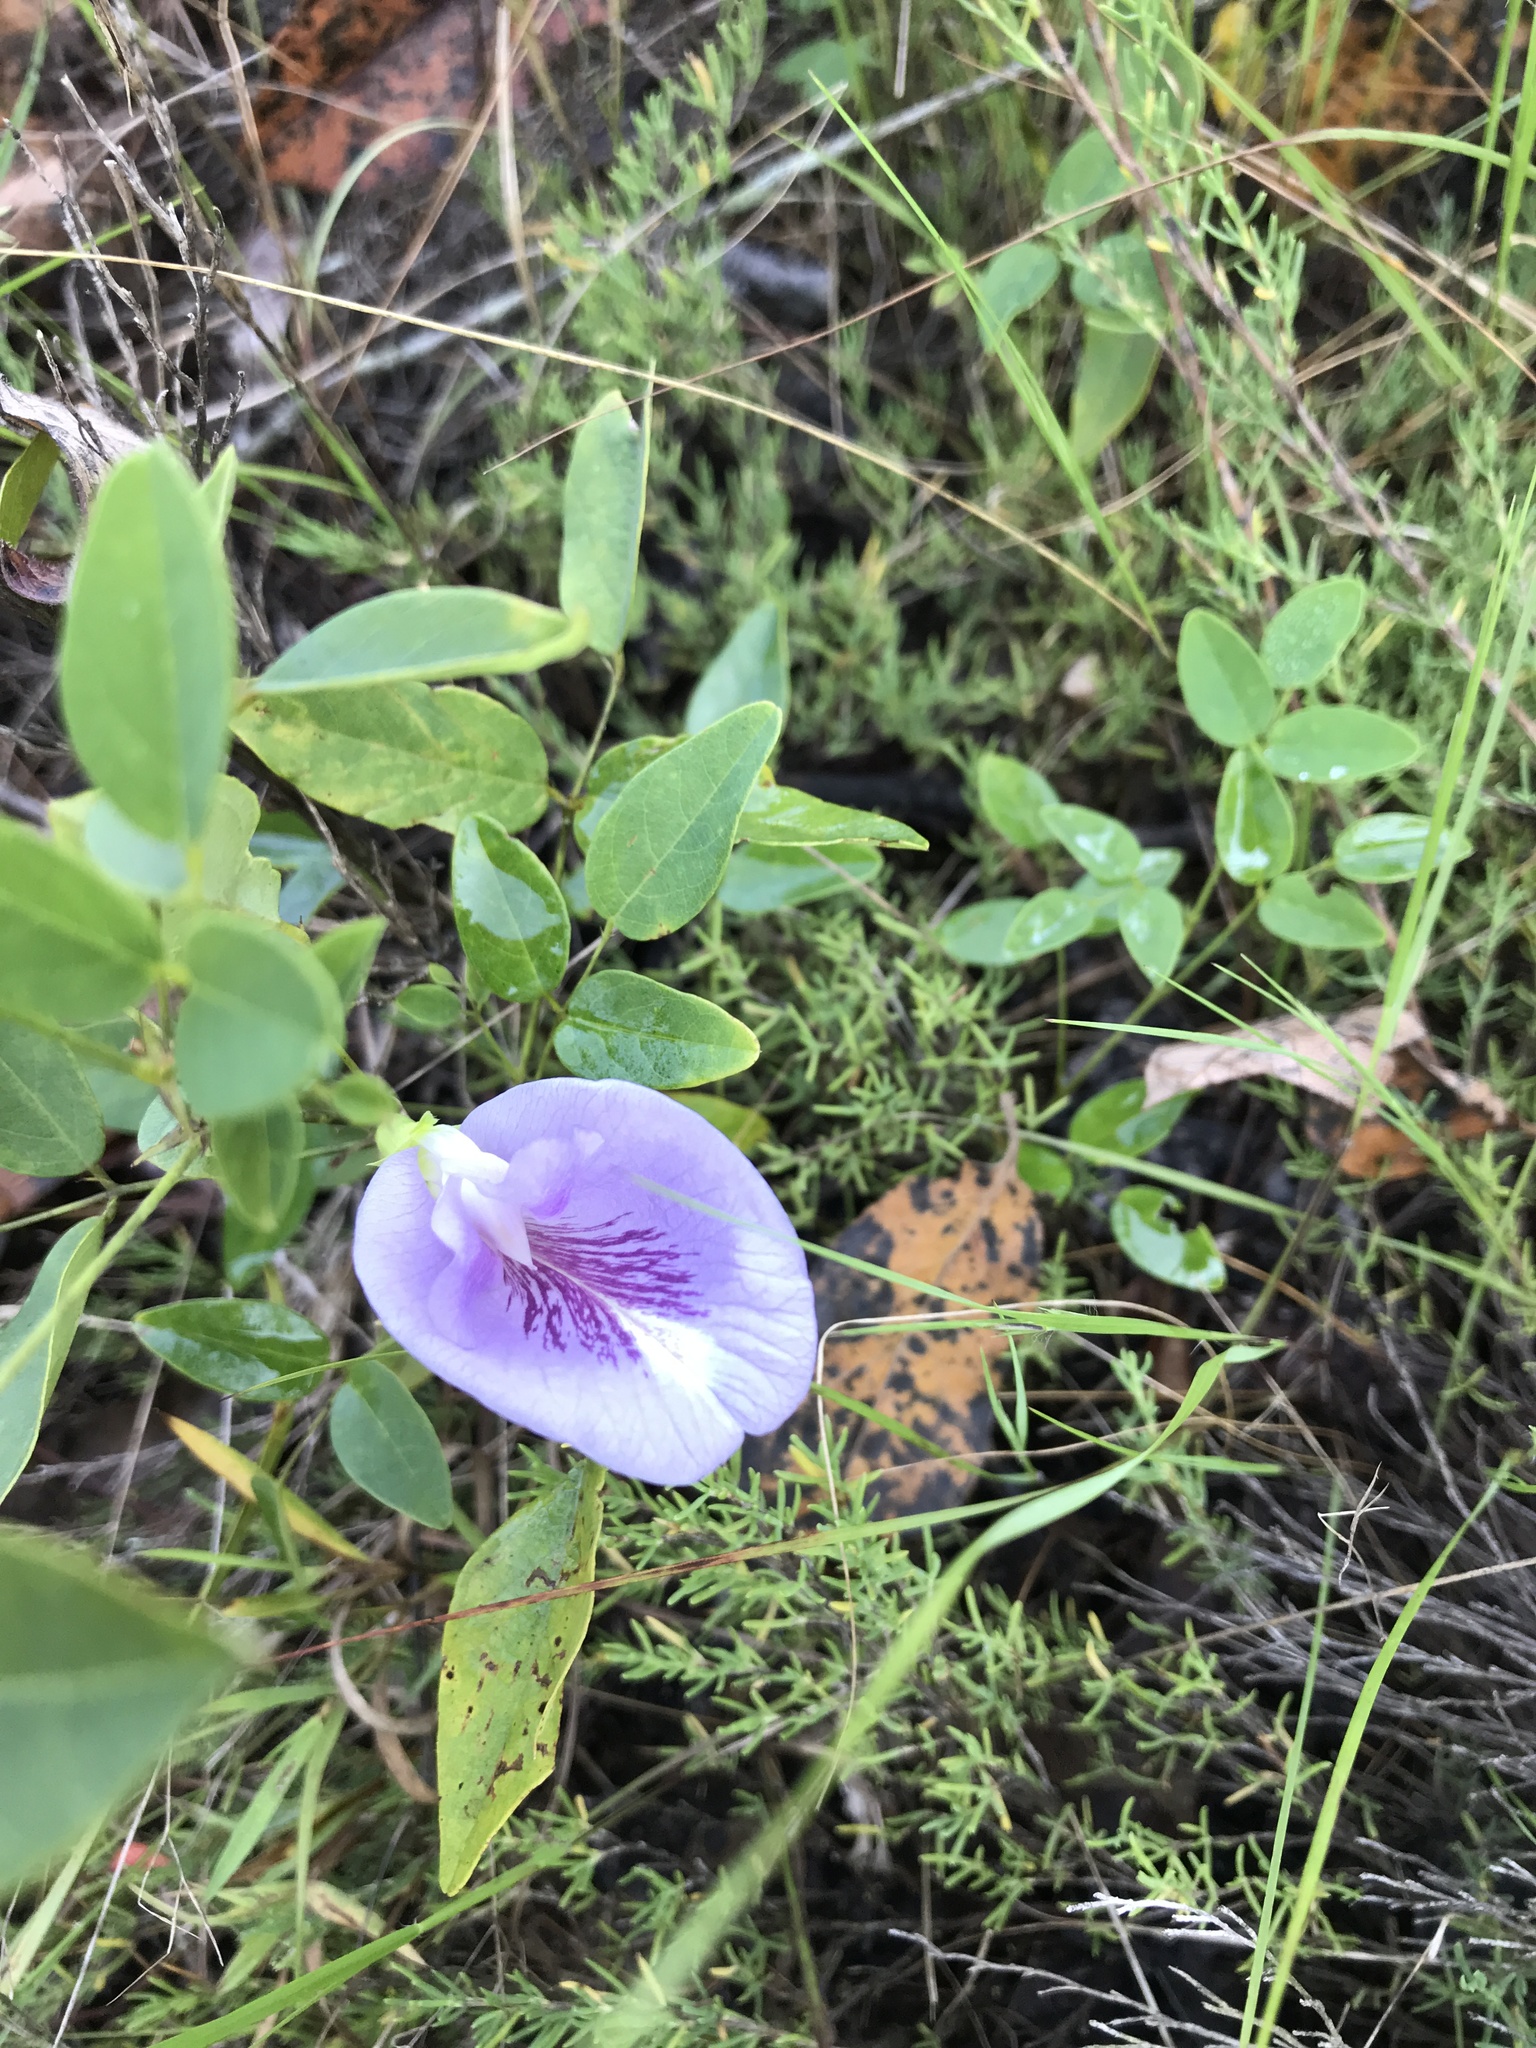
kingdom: Plantae
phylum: Tracheophyta
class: Magnoliopsida
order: Fabales
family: Fabaceae
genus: Clitoria
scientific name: Clitoria mariana
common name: Butterfly-pea
